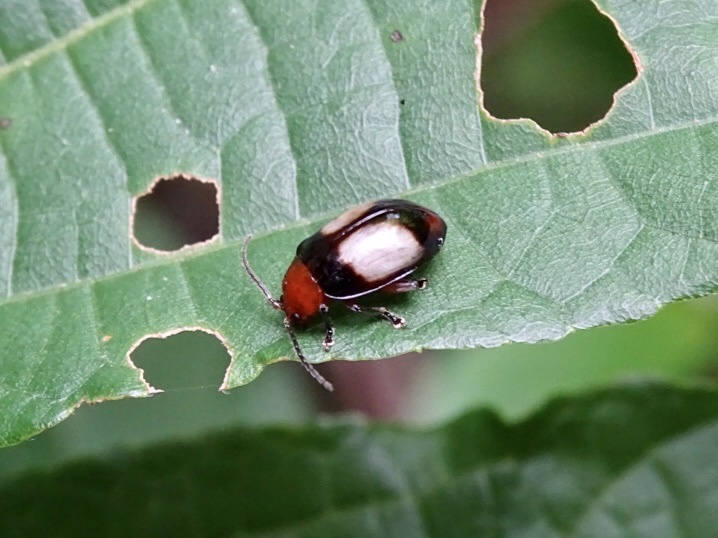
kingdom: Animalia
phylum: Arthropoda
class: Insecta
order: Coleoptera
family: Chrysomelidae
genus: Phygasia
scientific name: Phygasia ornata
